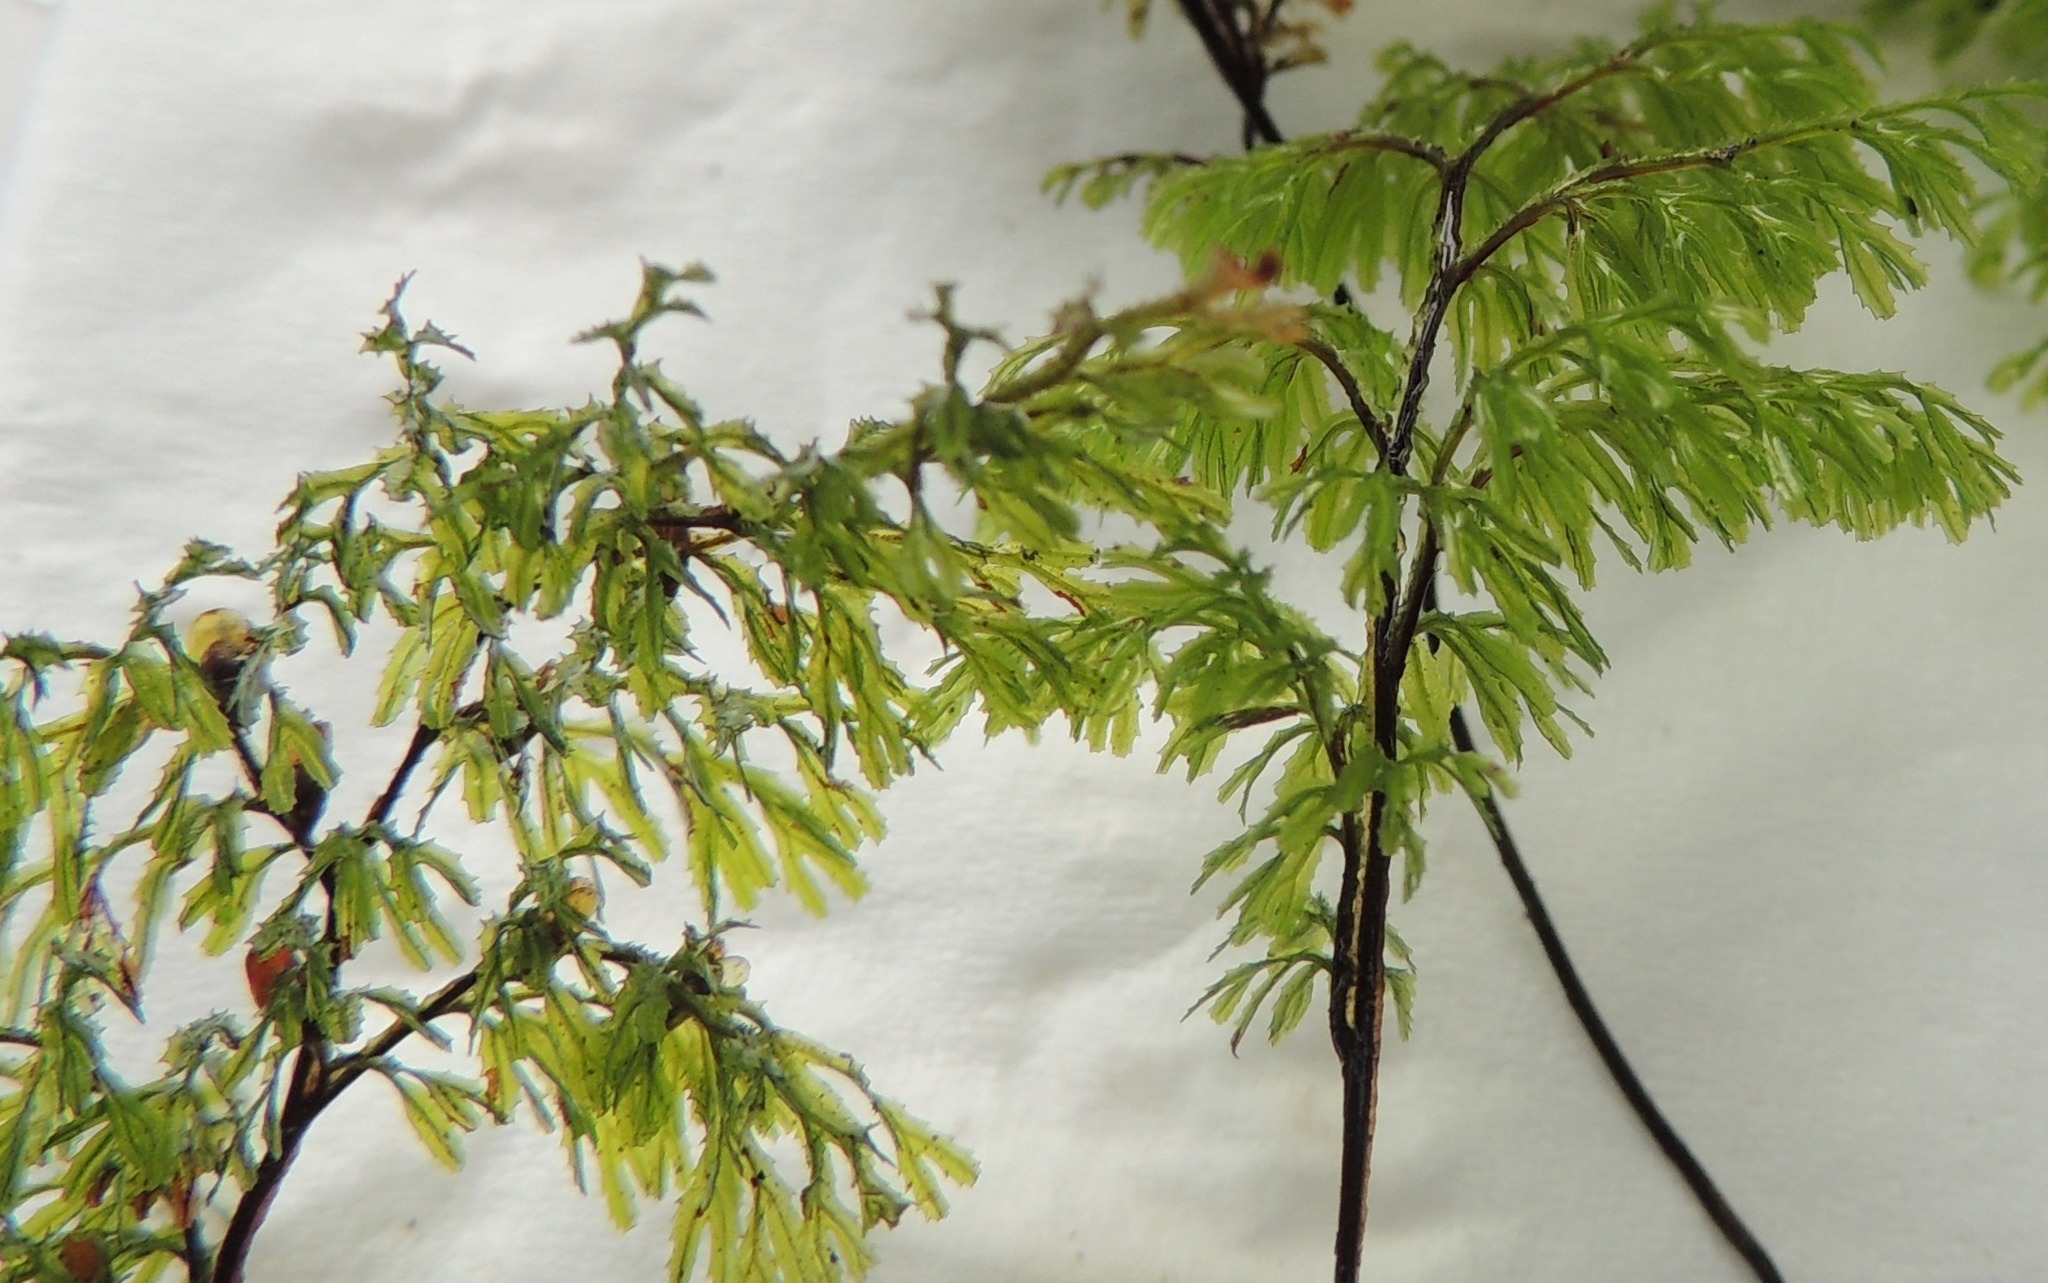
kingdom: Plantae
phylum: Tracheophyta
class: Polypodiopsida
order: Hymenophyllales
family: Hymenophyllaceae
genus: Hymenophyllum
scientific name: Hymenophyllum multifidum
